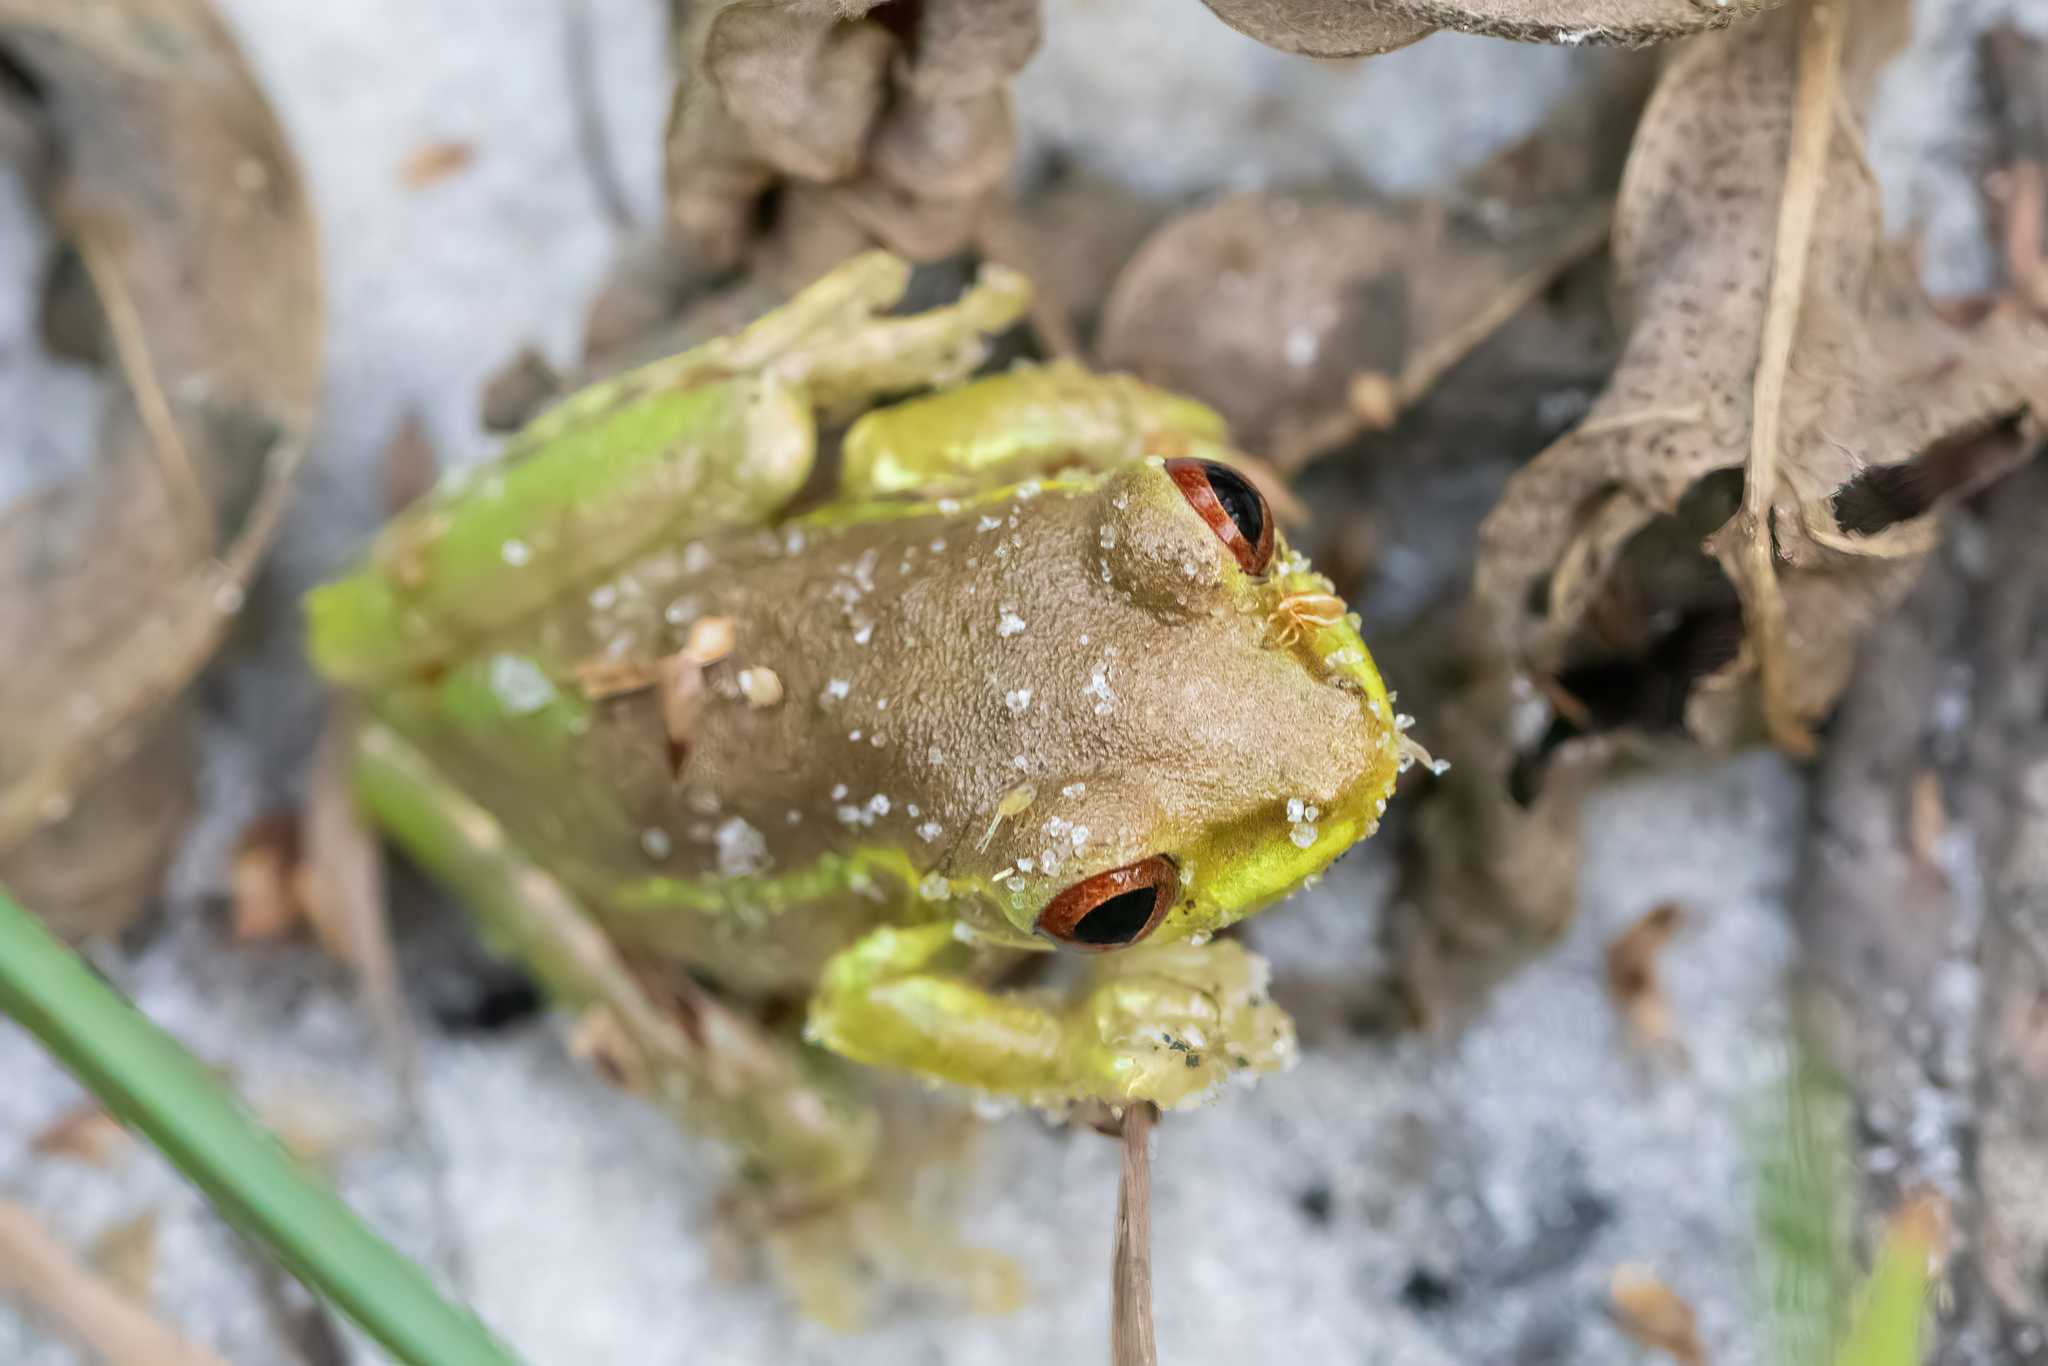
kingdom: Animalia
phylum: Chordata
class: Amphibia
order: Anura
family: Hylidae
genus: Osteopilus
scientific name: Osteopilus septentrionalis
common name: Cuban treefrog
